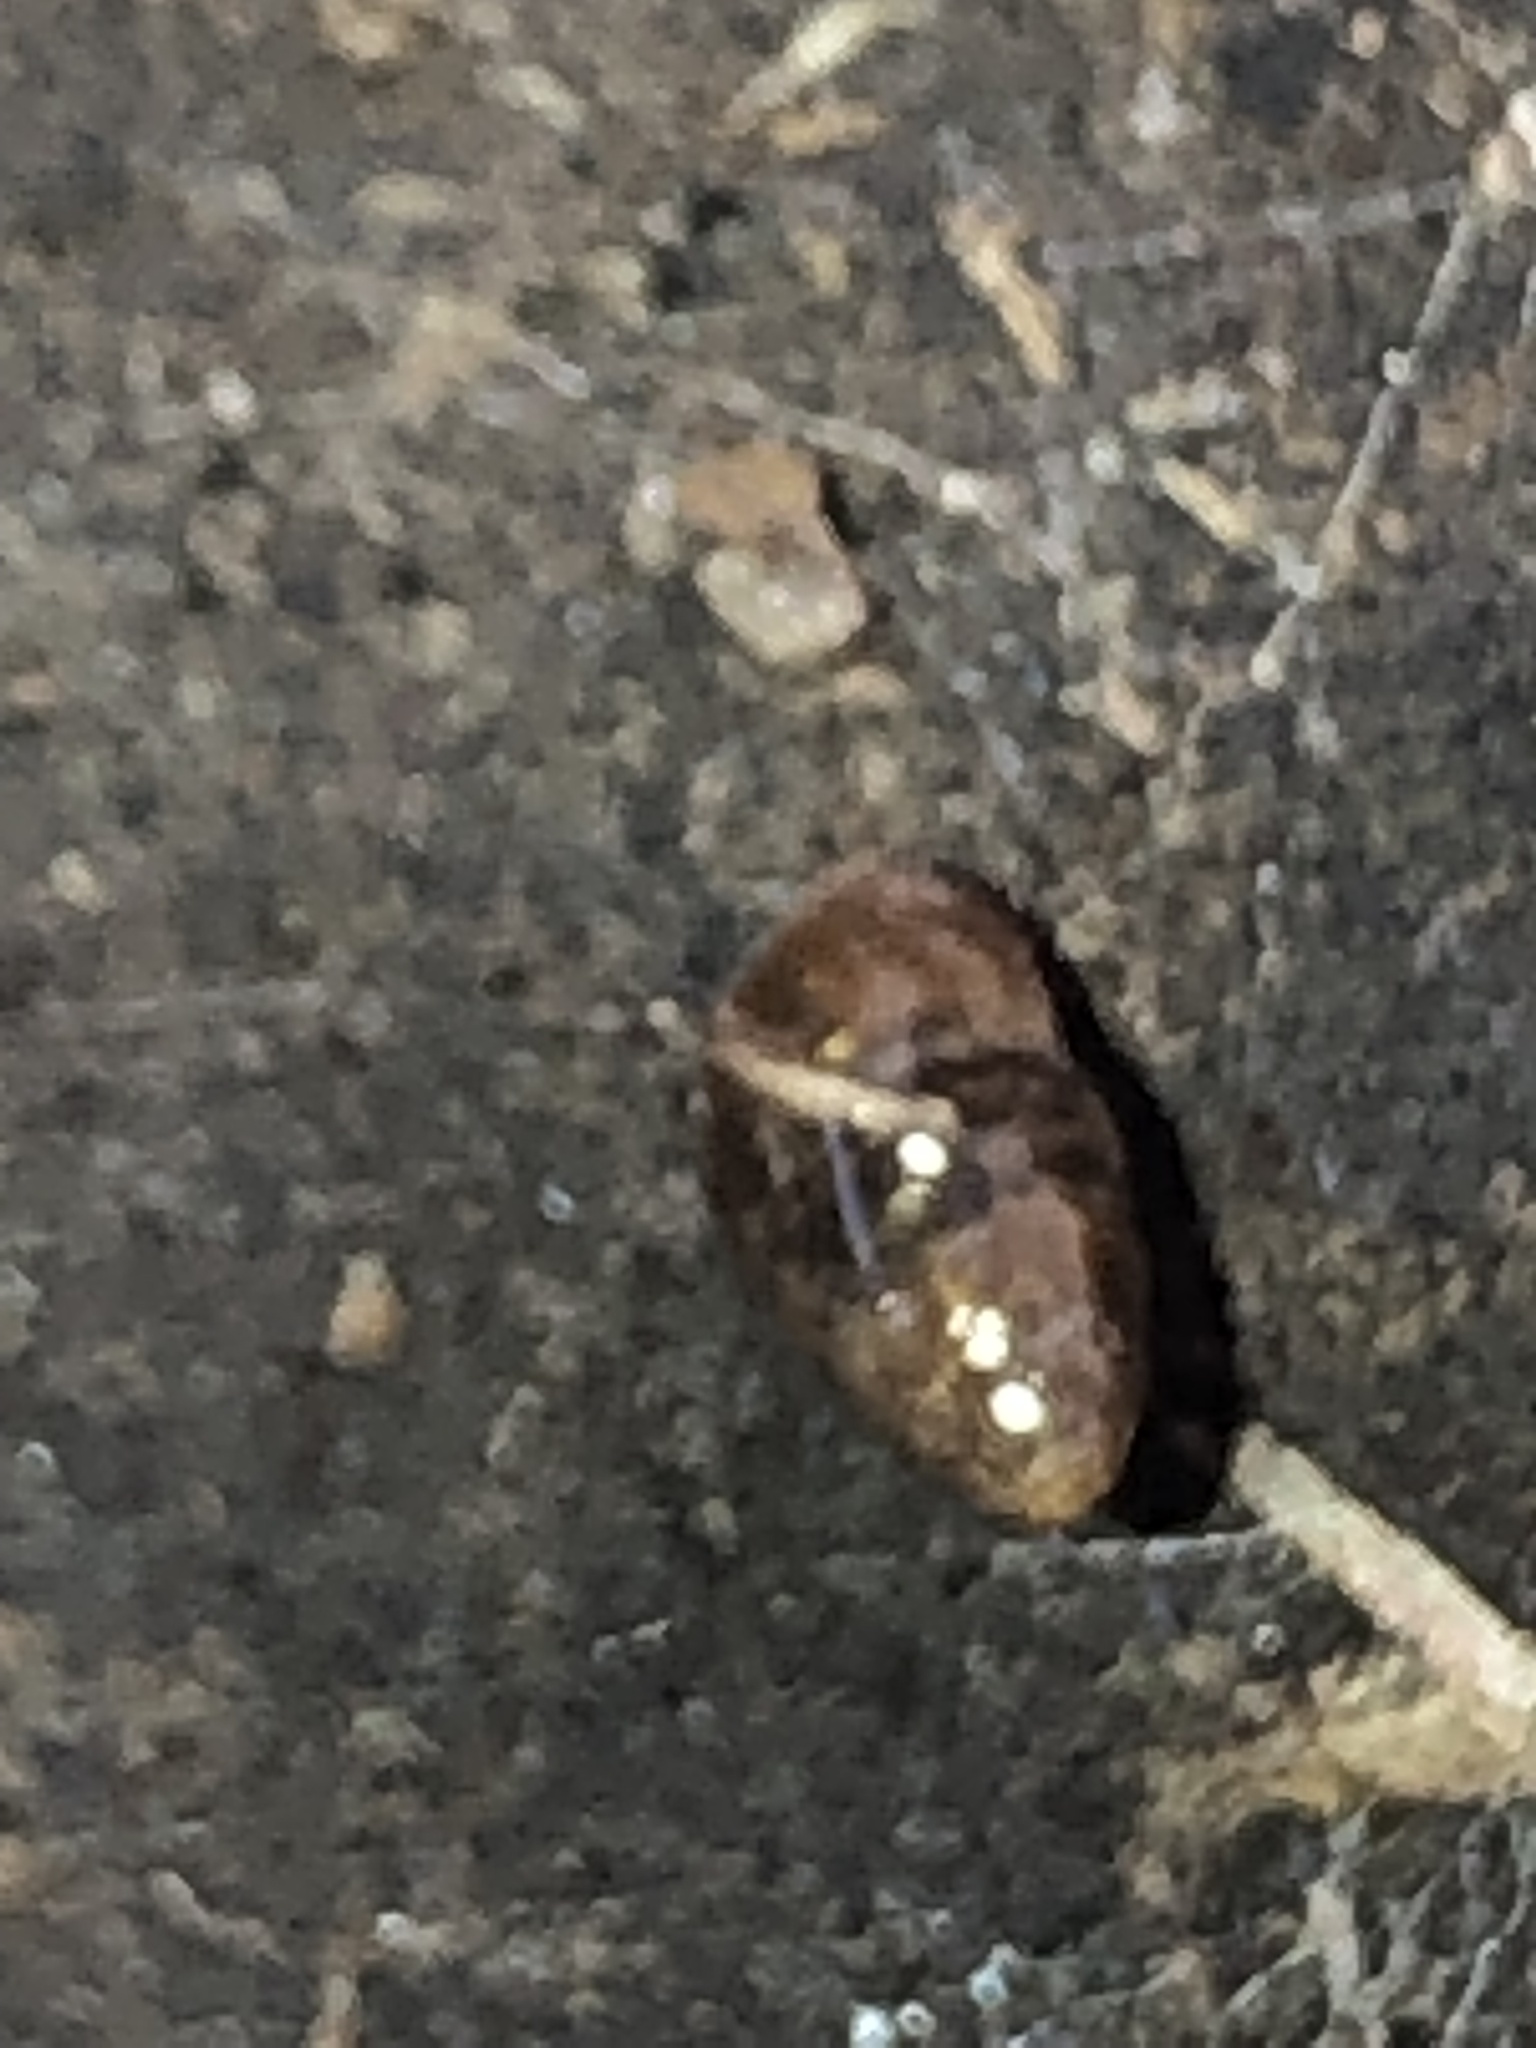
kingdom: Animalia
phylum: Mollusca
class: Gastropoda
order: Stylommatophora
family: Cochlicopidae
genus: Cochlicopa
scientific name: Cochlicopa lubrica
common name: Glossy pillar snail
